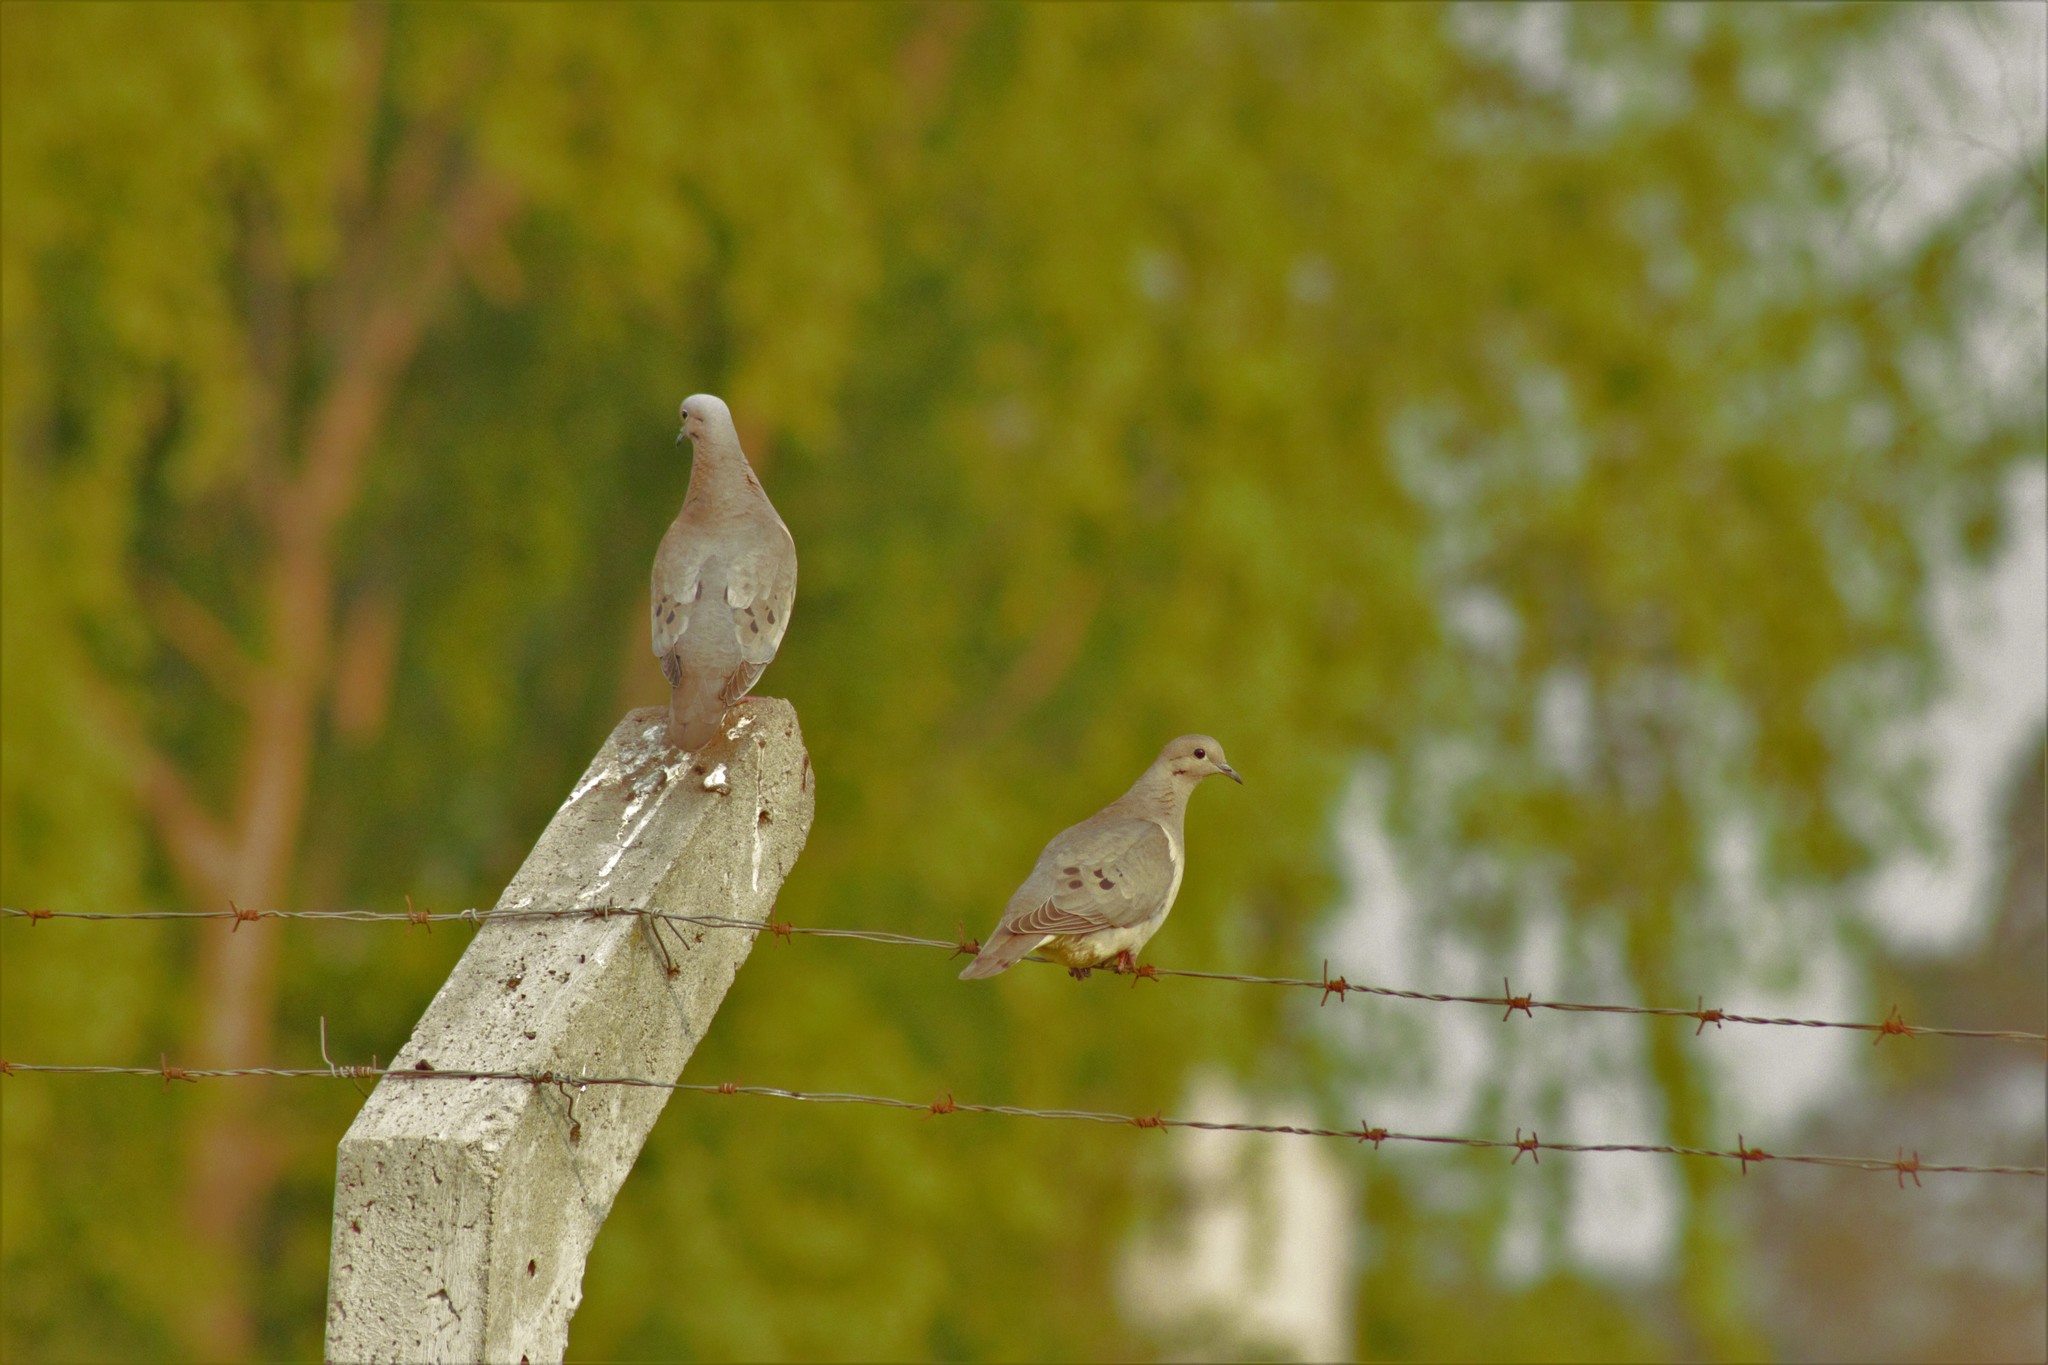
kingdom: Animalia
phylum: Chordata
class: Aves
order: Columbiformes
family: Columbidae
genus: Zenaida
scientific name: Zenaida auriculata
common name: Eared dove
